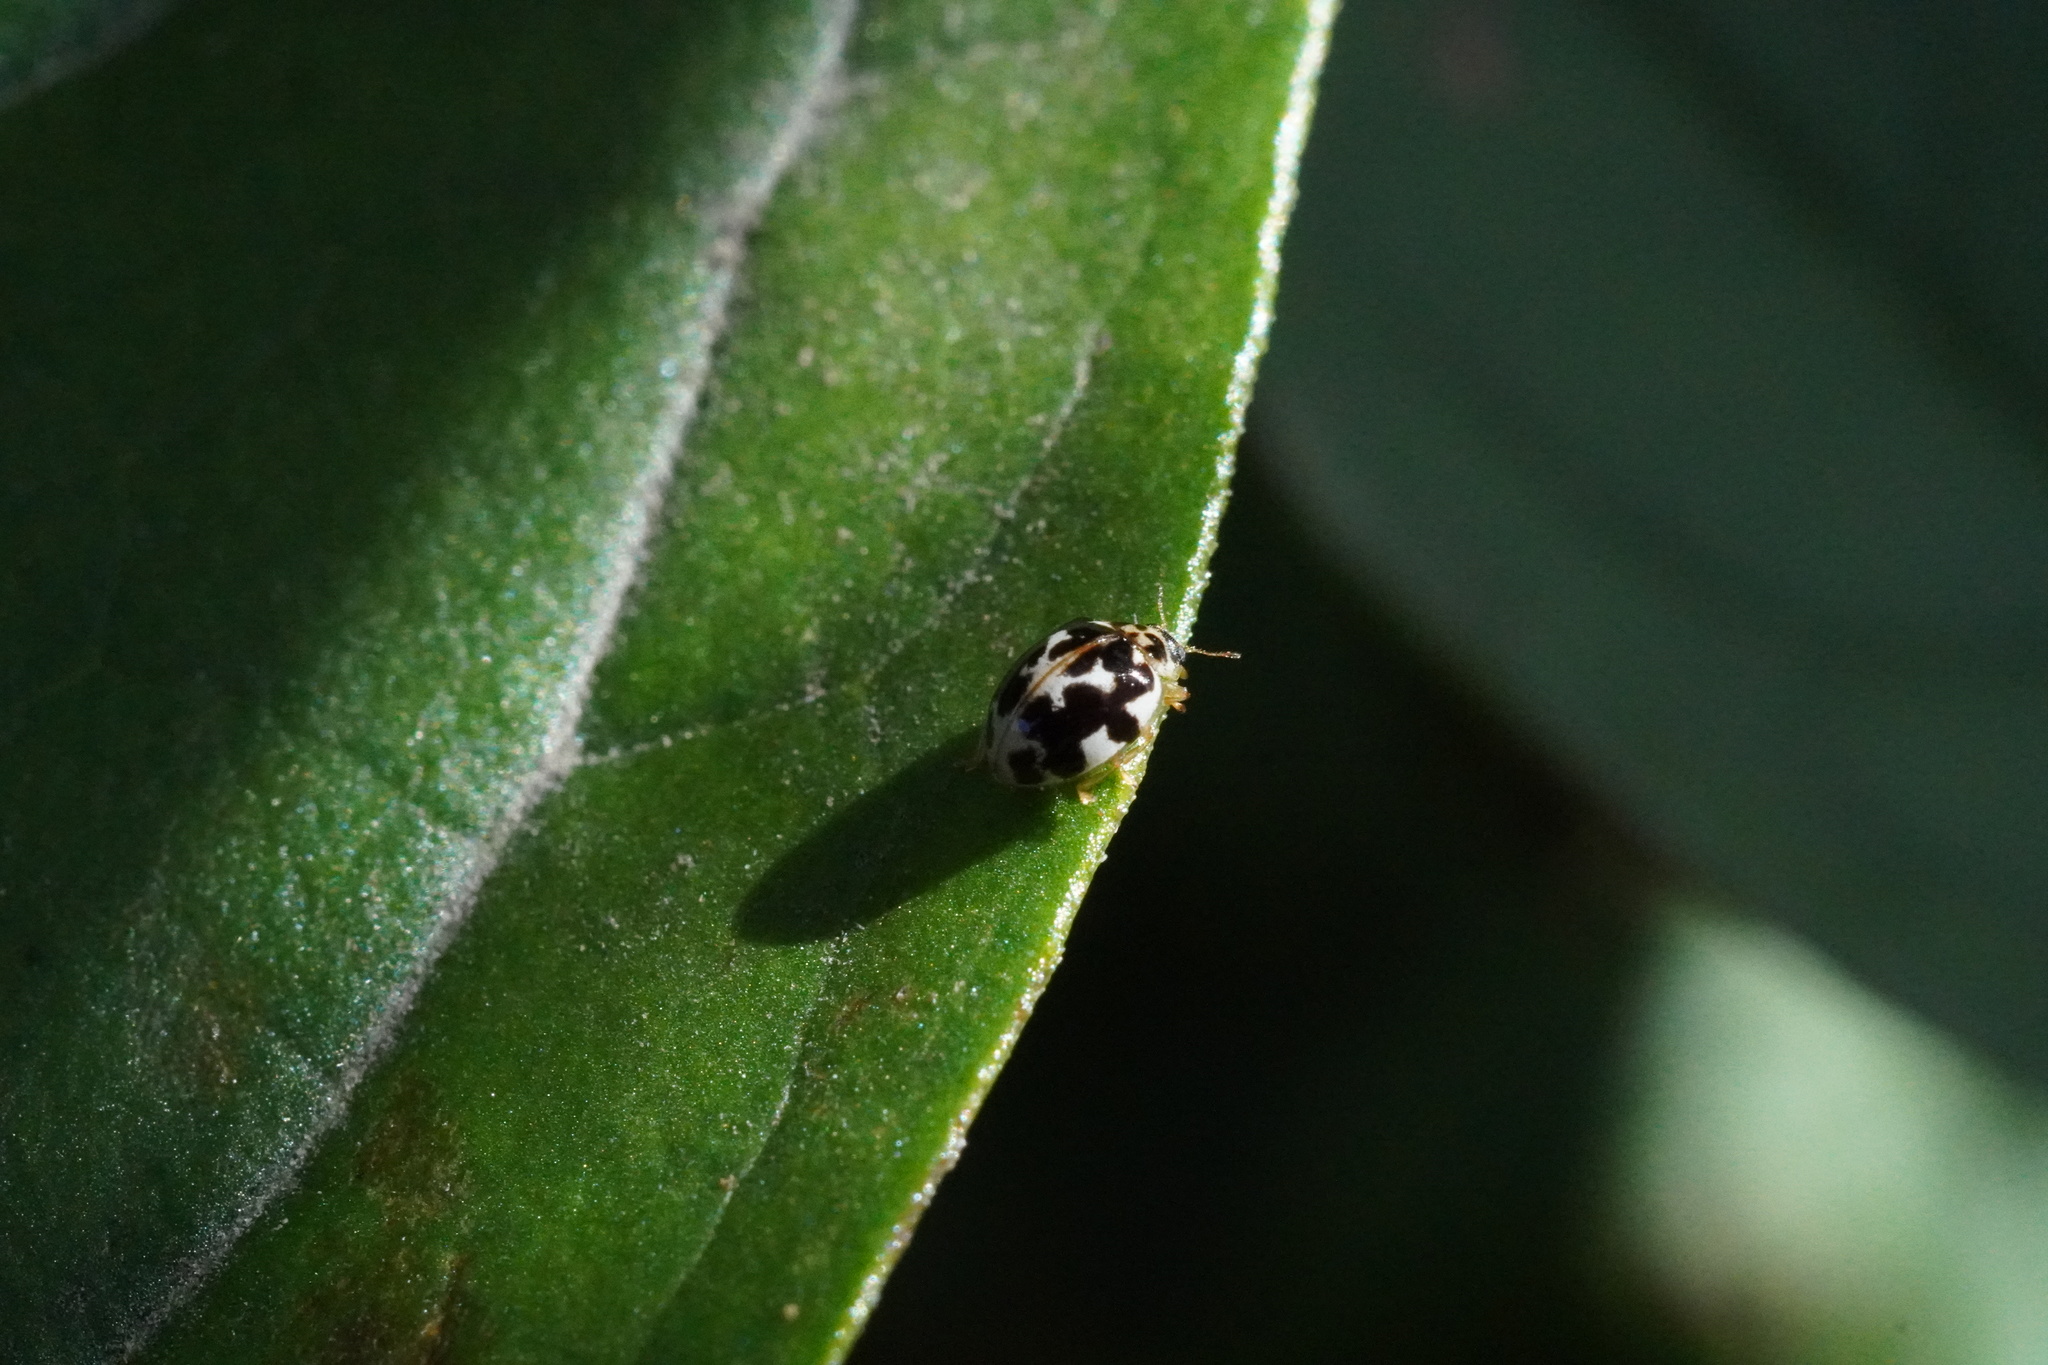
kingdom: Animalia
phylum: Arthropoda
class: Insecta
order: Coleoptera
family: Coccinellidae
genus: Psyllobora
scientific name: Psyllobora vigintimaculata
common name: Ladybird beetle
